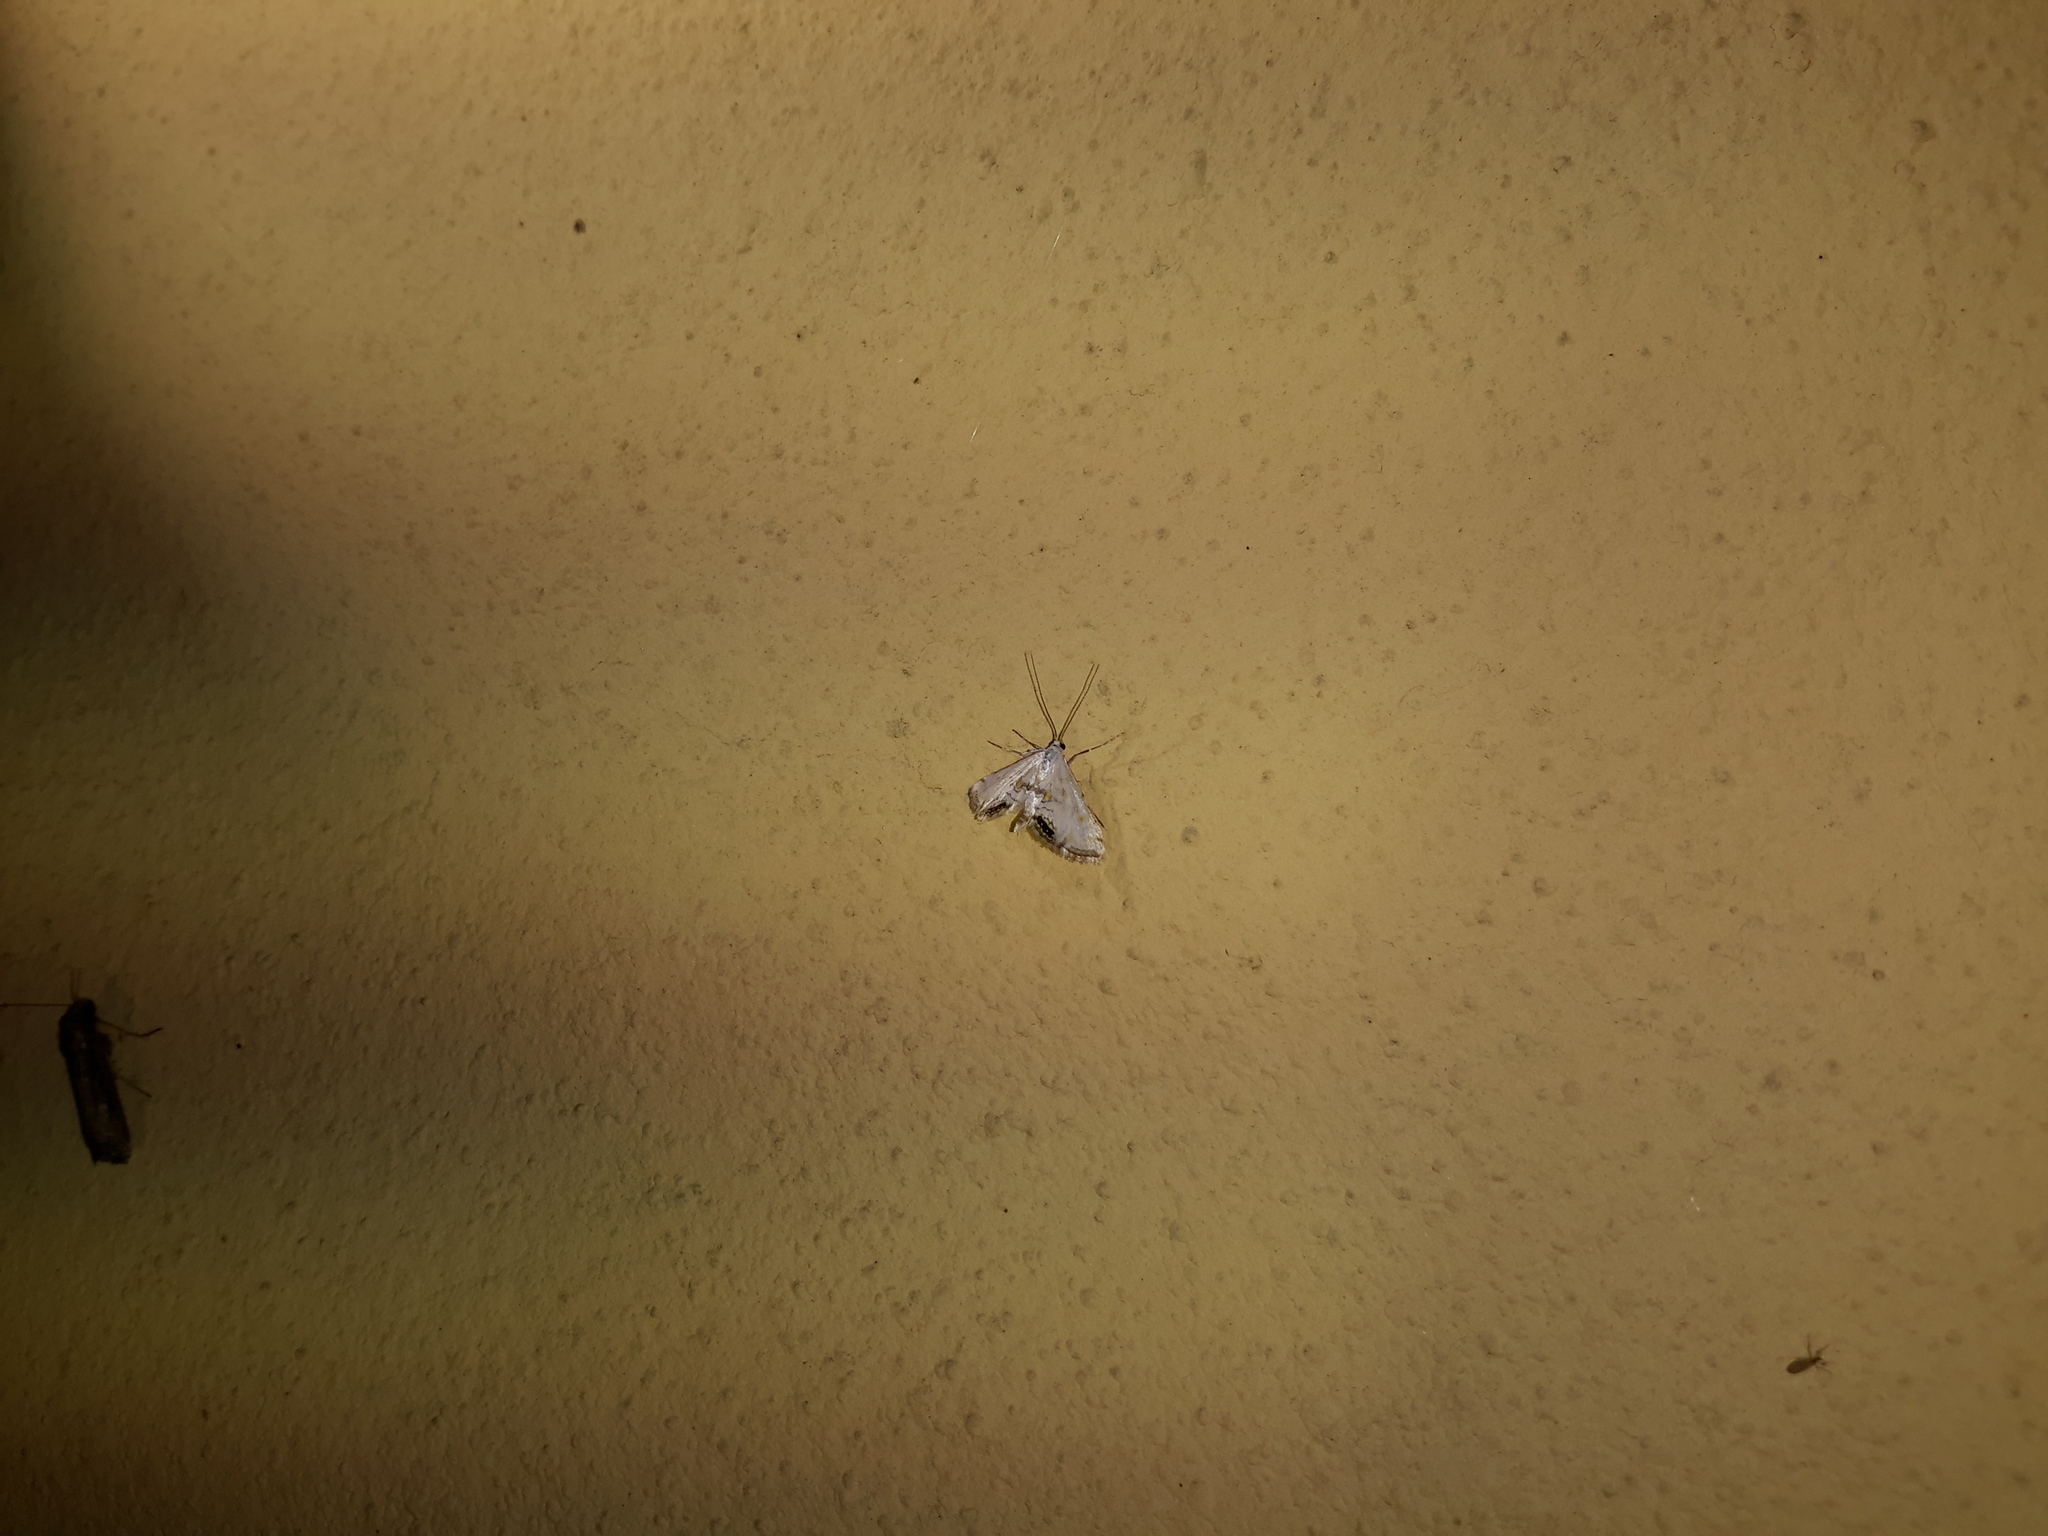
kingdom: Animalia
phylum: Arthropoda
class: Insecta
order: Lepidoptera
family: Crambidae
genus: Cataclysta
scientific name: Cataclysta lemnata
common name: Small china-mark
